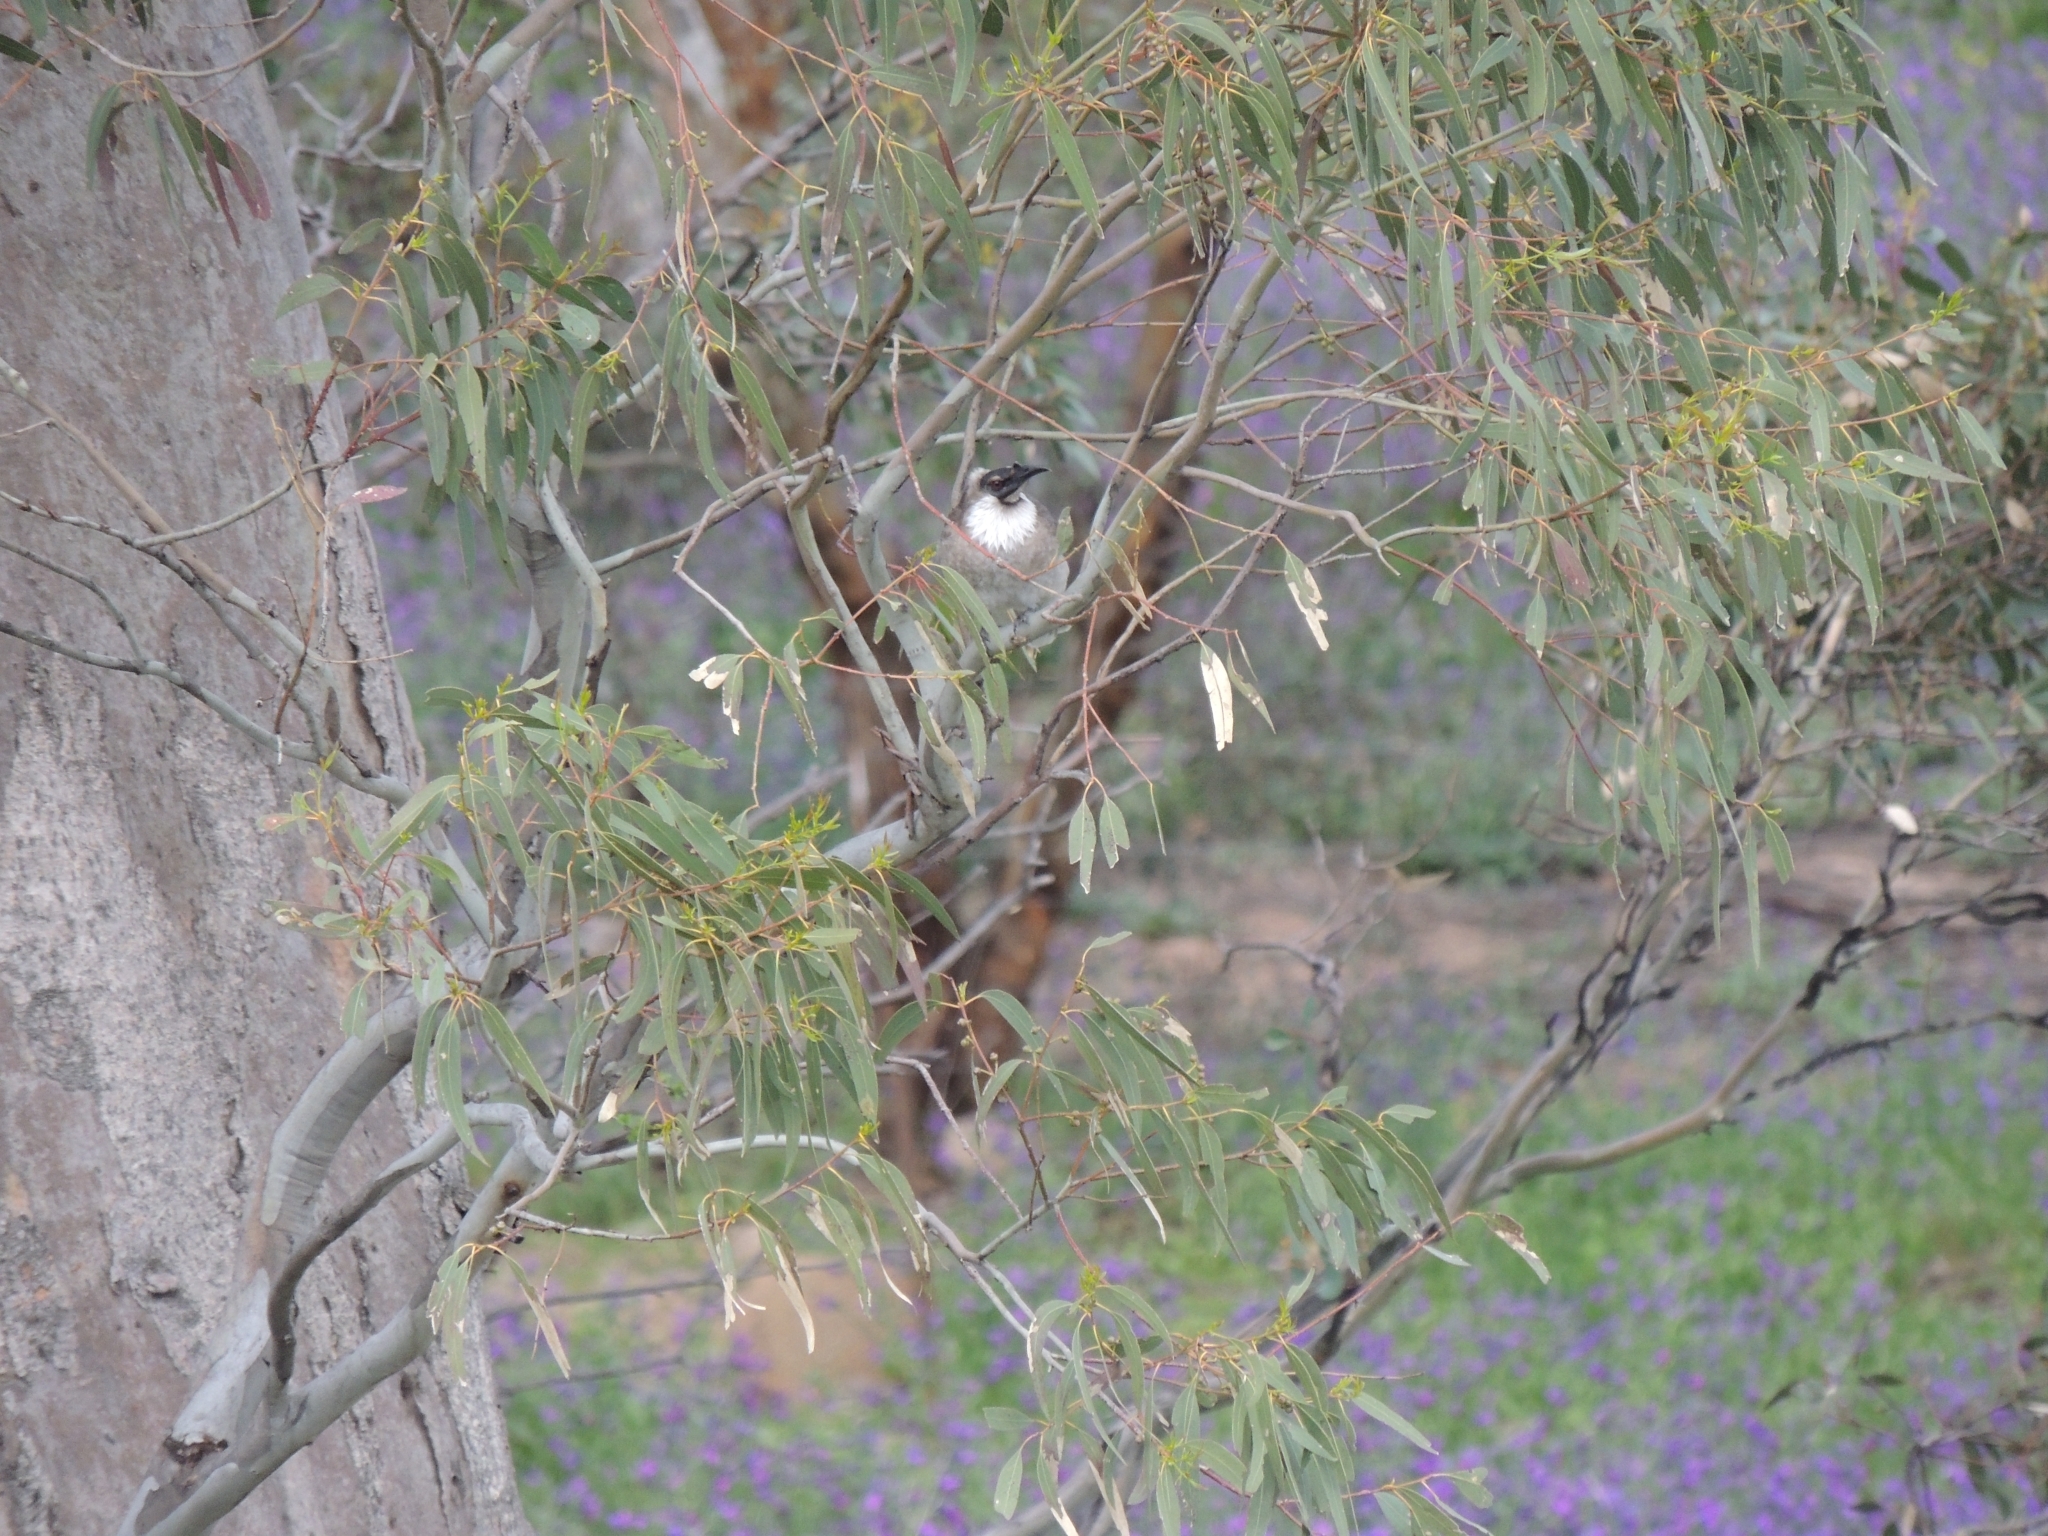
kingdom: Animalia
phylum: Chordata
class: Aves
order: Passeriformes
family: Meliphagidae
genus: Philemon
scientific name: Philemon corniculatus
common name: Noisy friarbird
